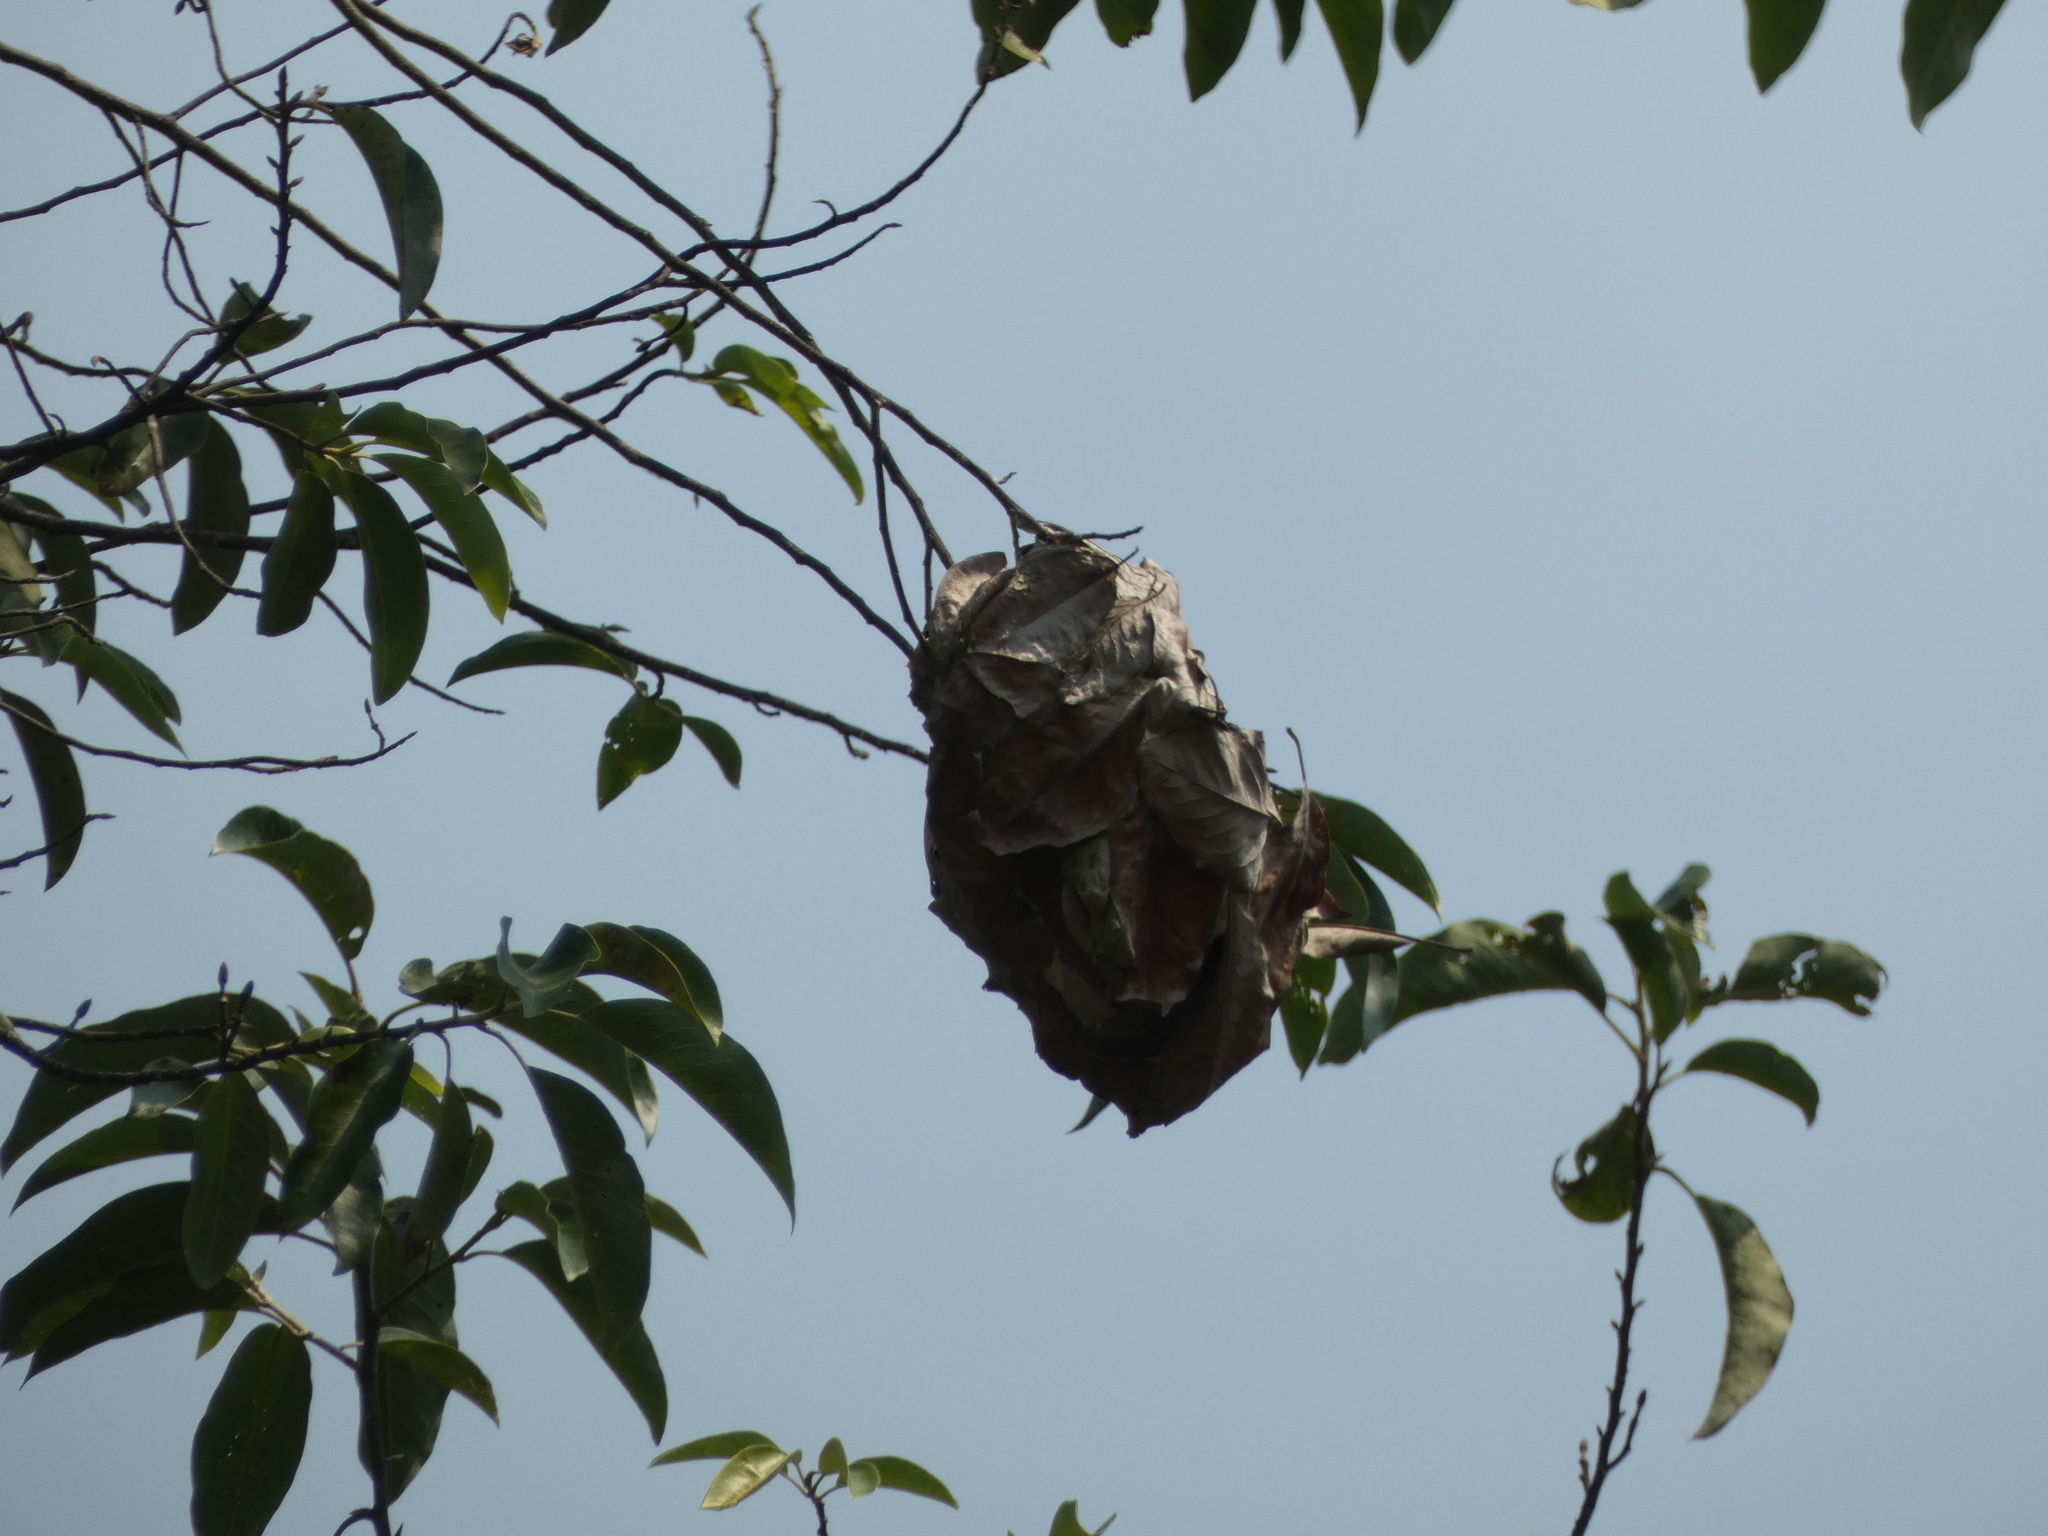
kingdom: Animalia
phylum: Arthropoda
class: Insecta
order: Hymenoptera
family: Formicidae
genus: Oecophylla
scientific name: Oecophylla smaragdina
